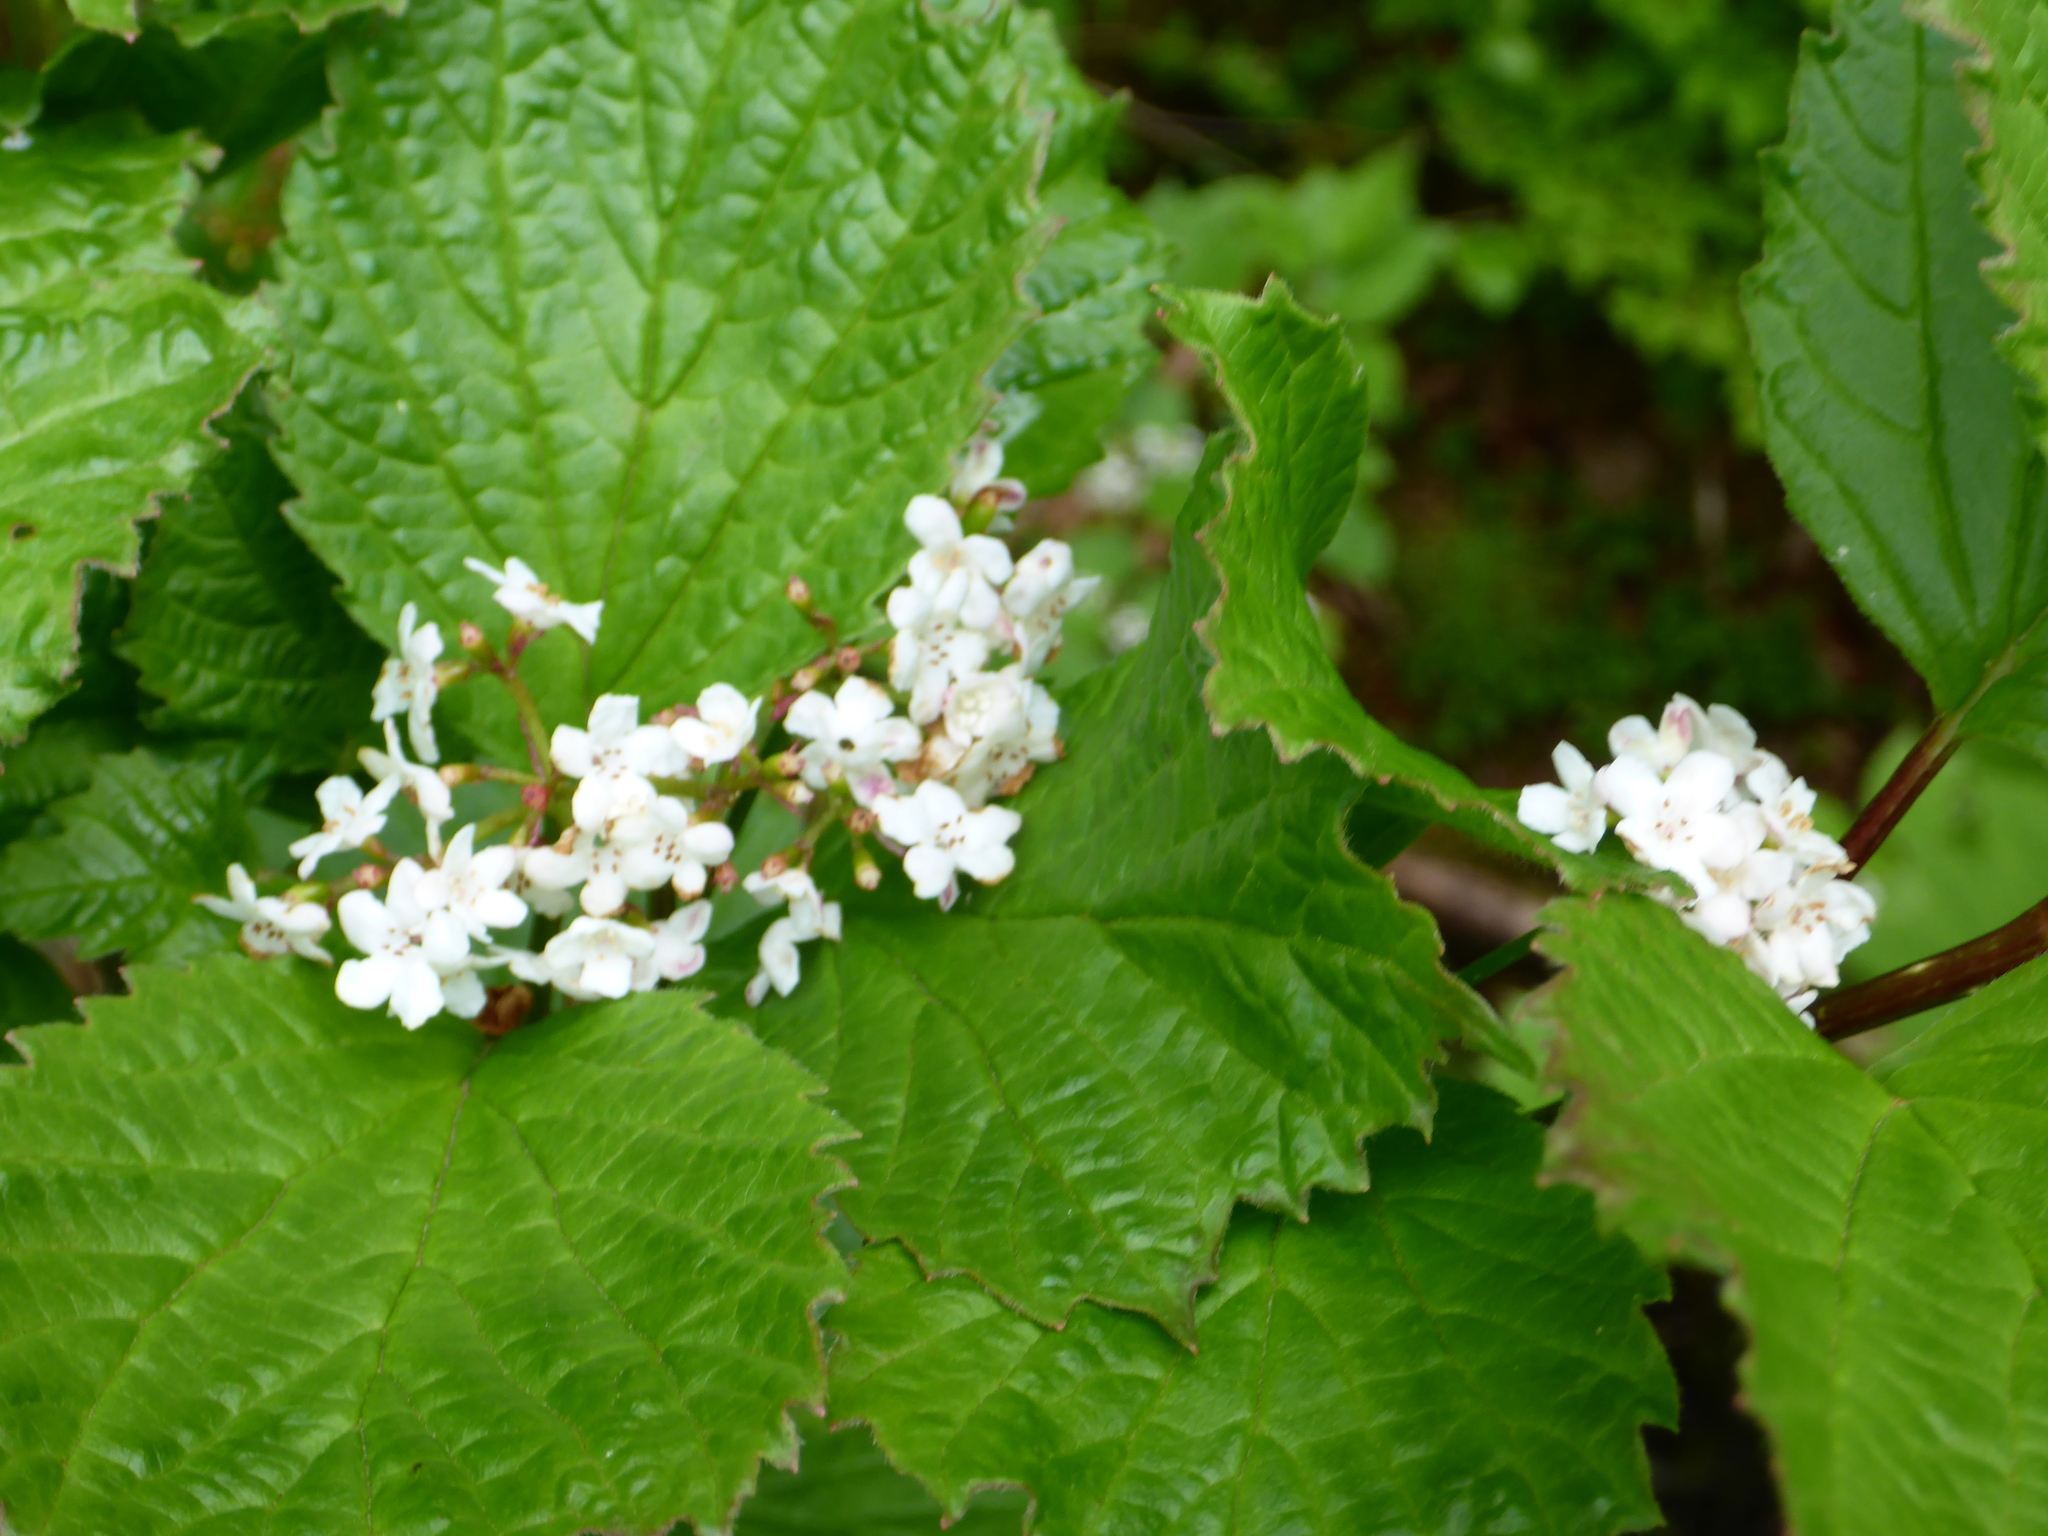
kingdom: Plantae
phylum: Tracheophyta
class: Magnoliopsida
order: Dipsacales
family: Viburnaceae
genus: Viburnum
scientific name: Viburnum edule
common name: Mooseberry
